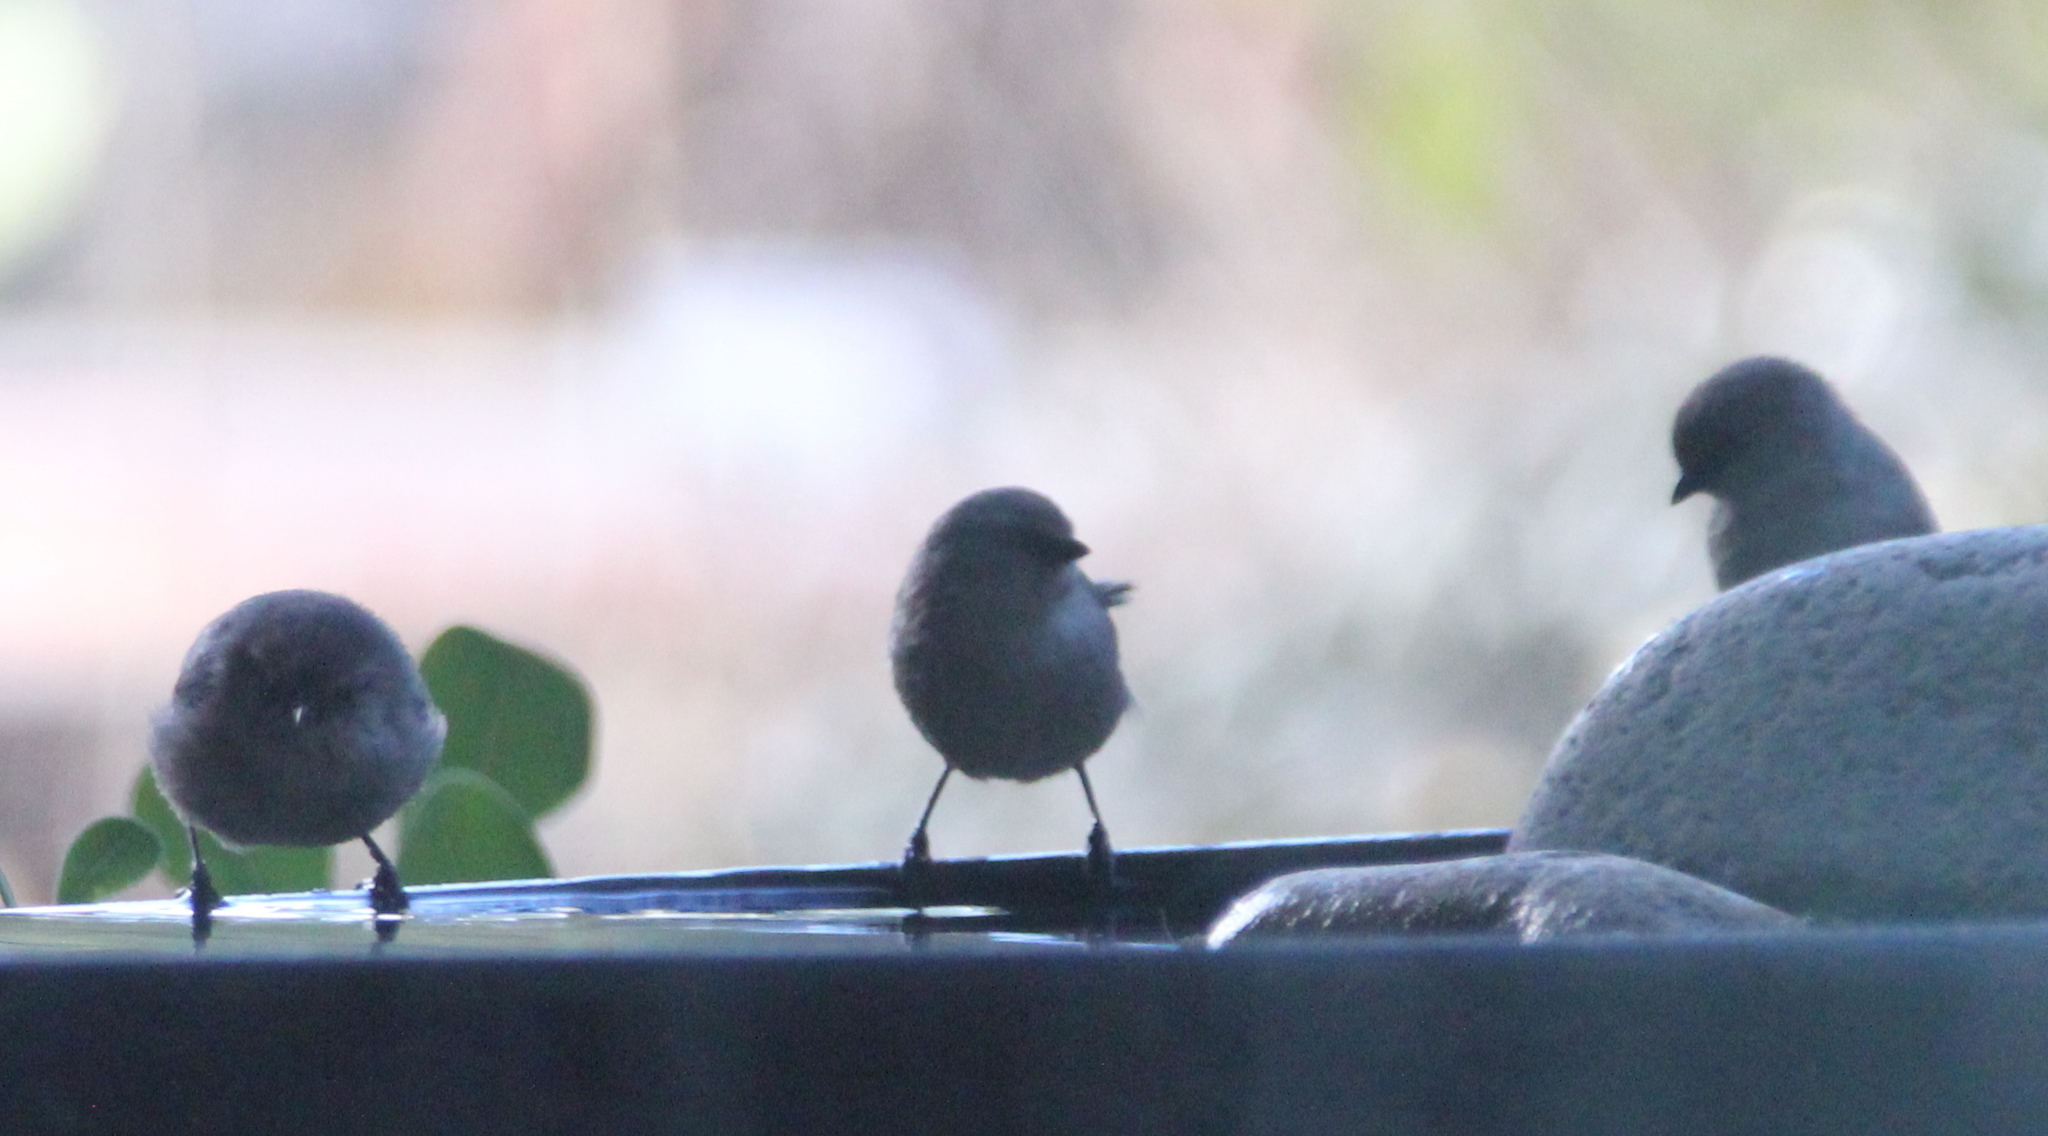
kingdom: Animalia
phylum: Chordata
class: Aves
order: Passeriformes
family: Aegithalidae
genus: Psaltriparus
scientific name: Psaltriparus minimus
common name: American bushtit
